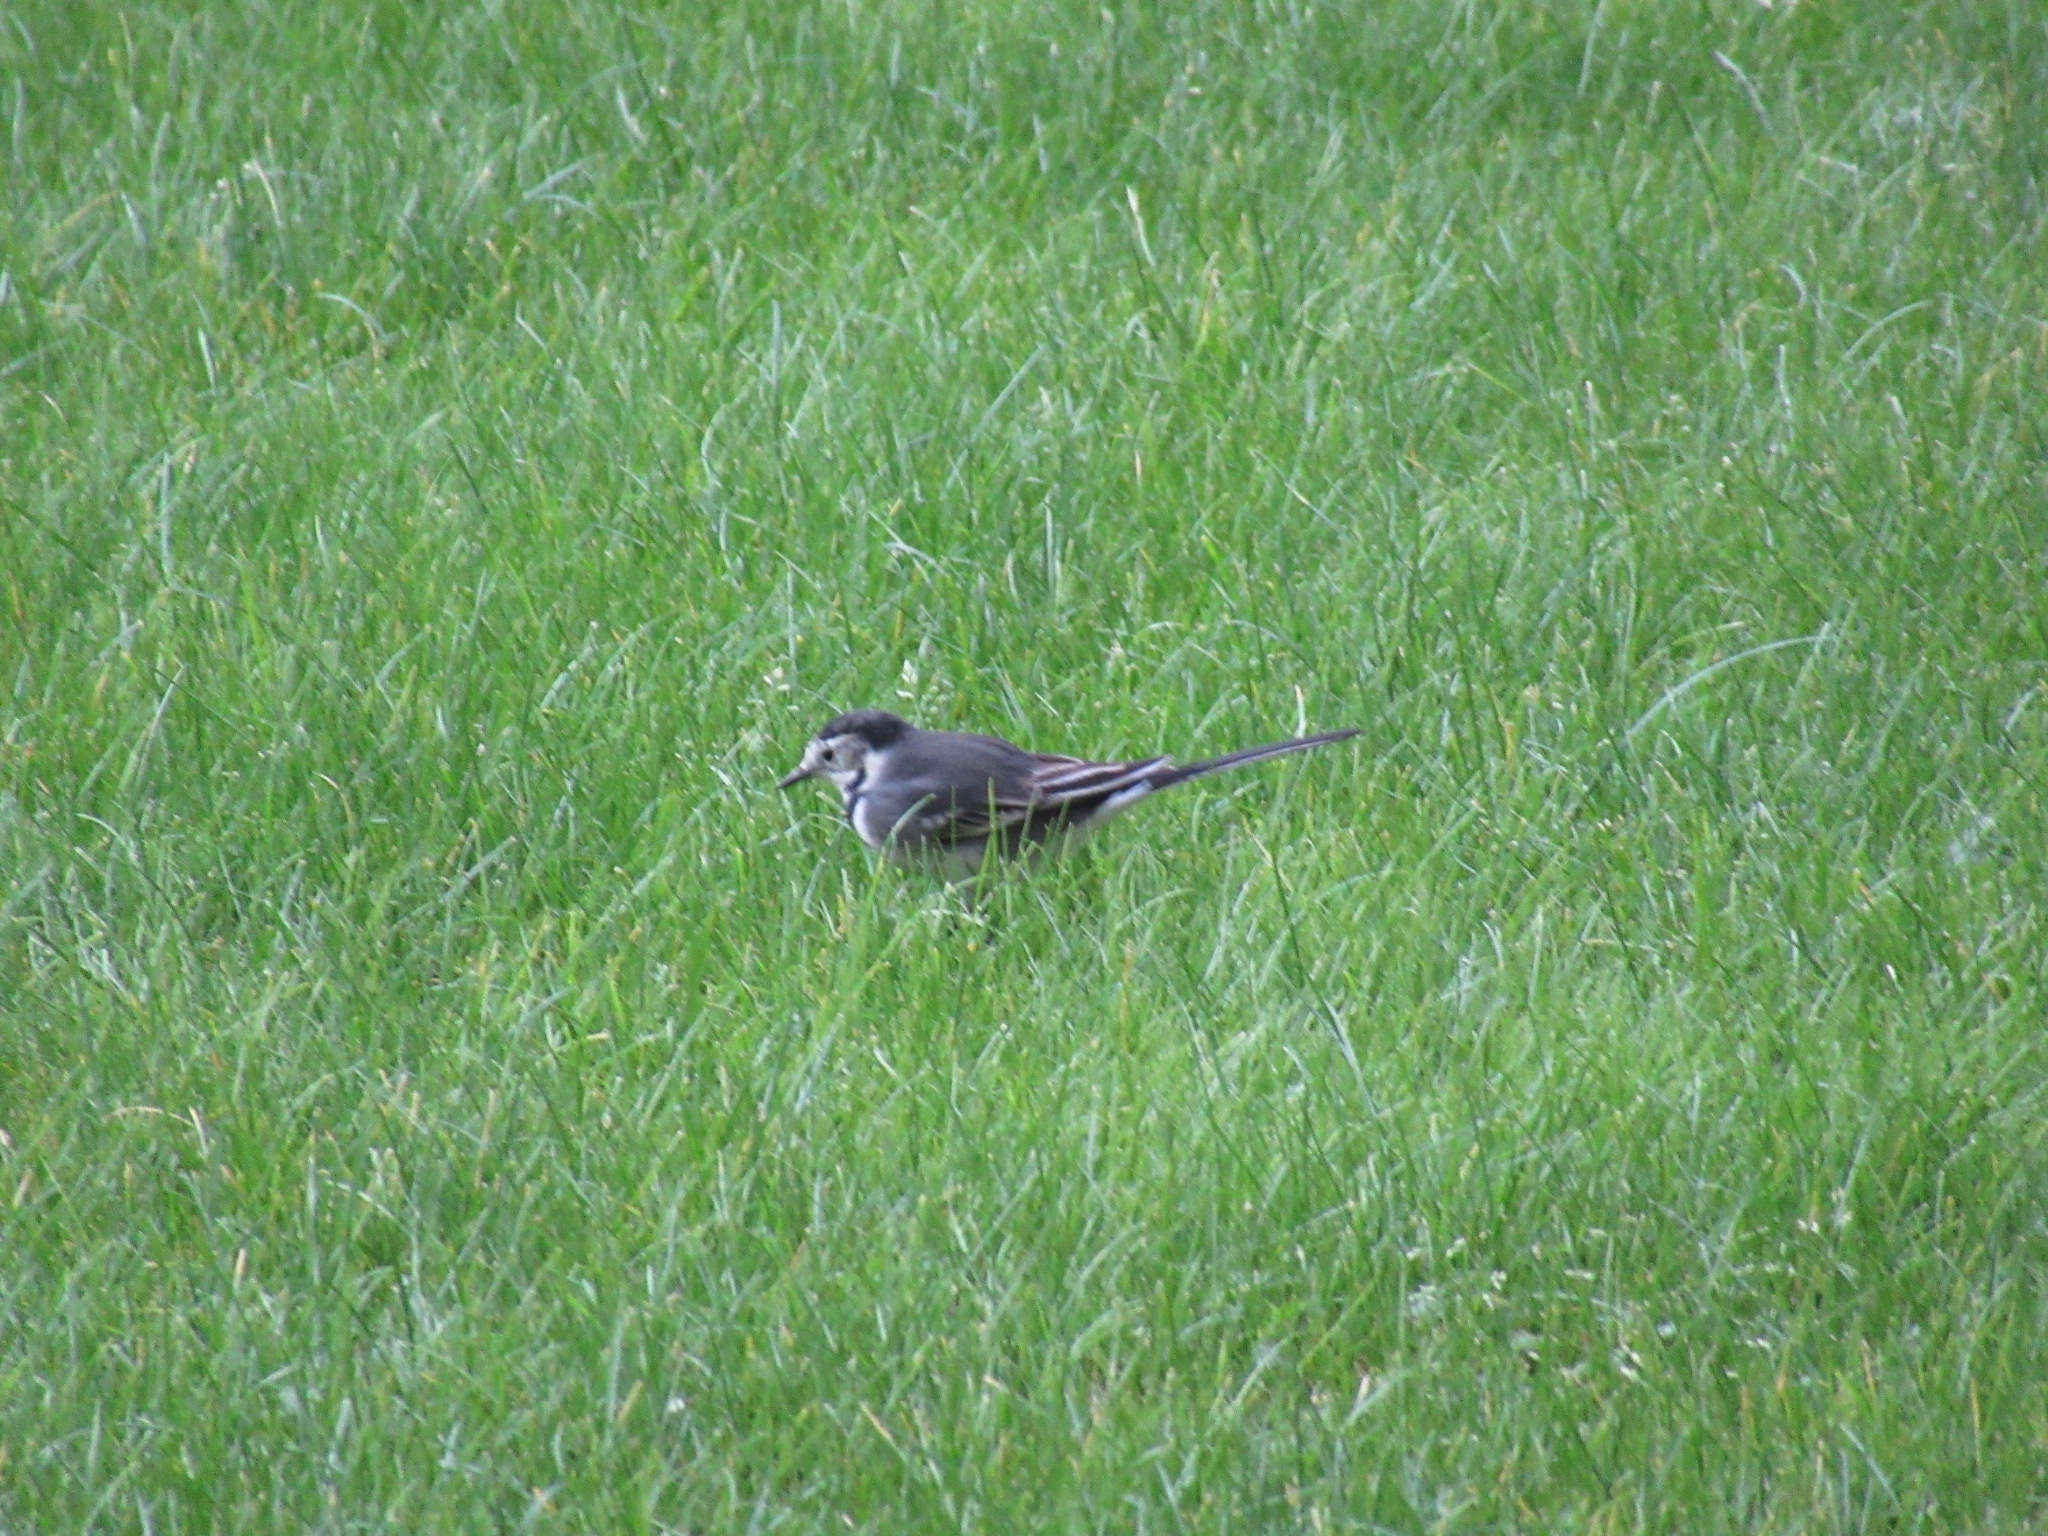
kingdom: Animalia
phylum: Chordata
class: Aves
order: Passeriformes
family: Motacillidae
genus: Motacilla
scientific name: Motacilla alba
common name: White wagtail
